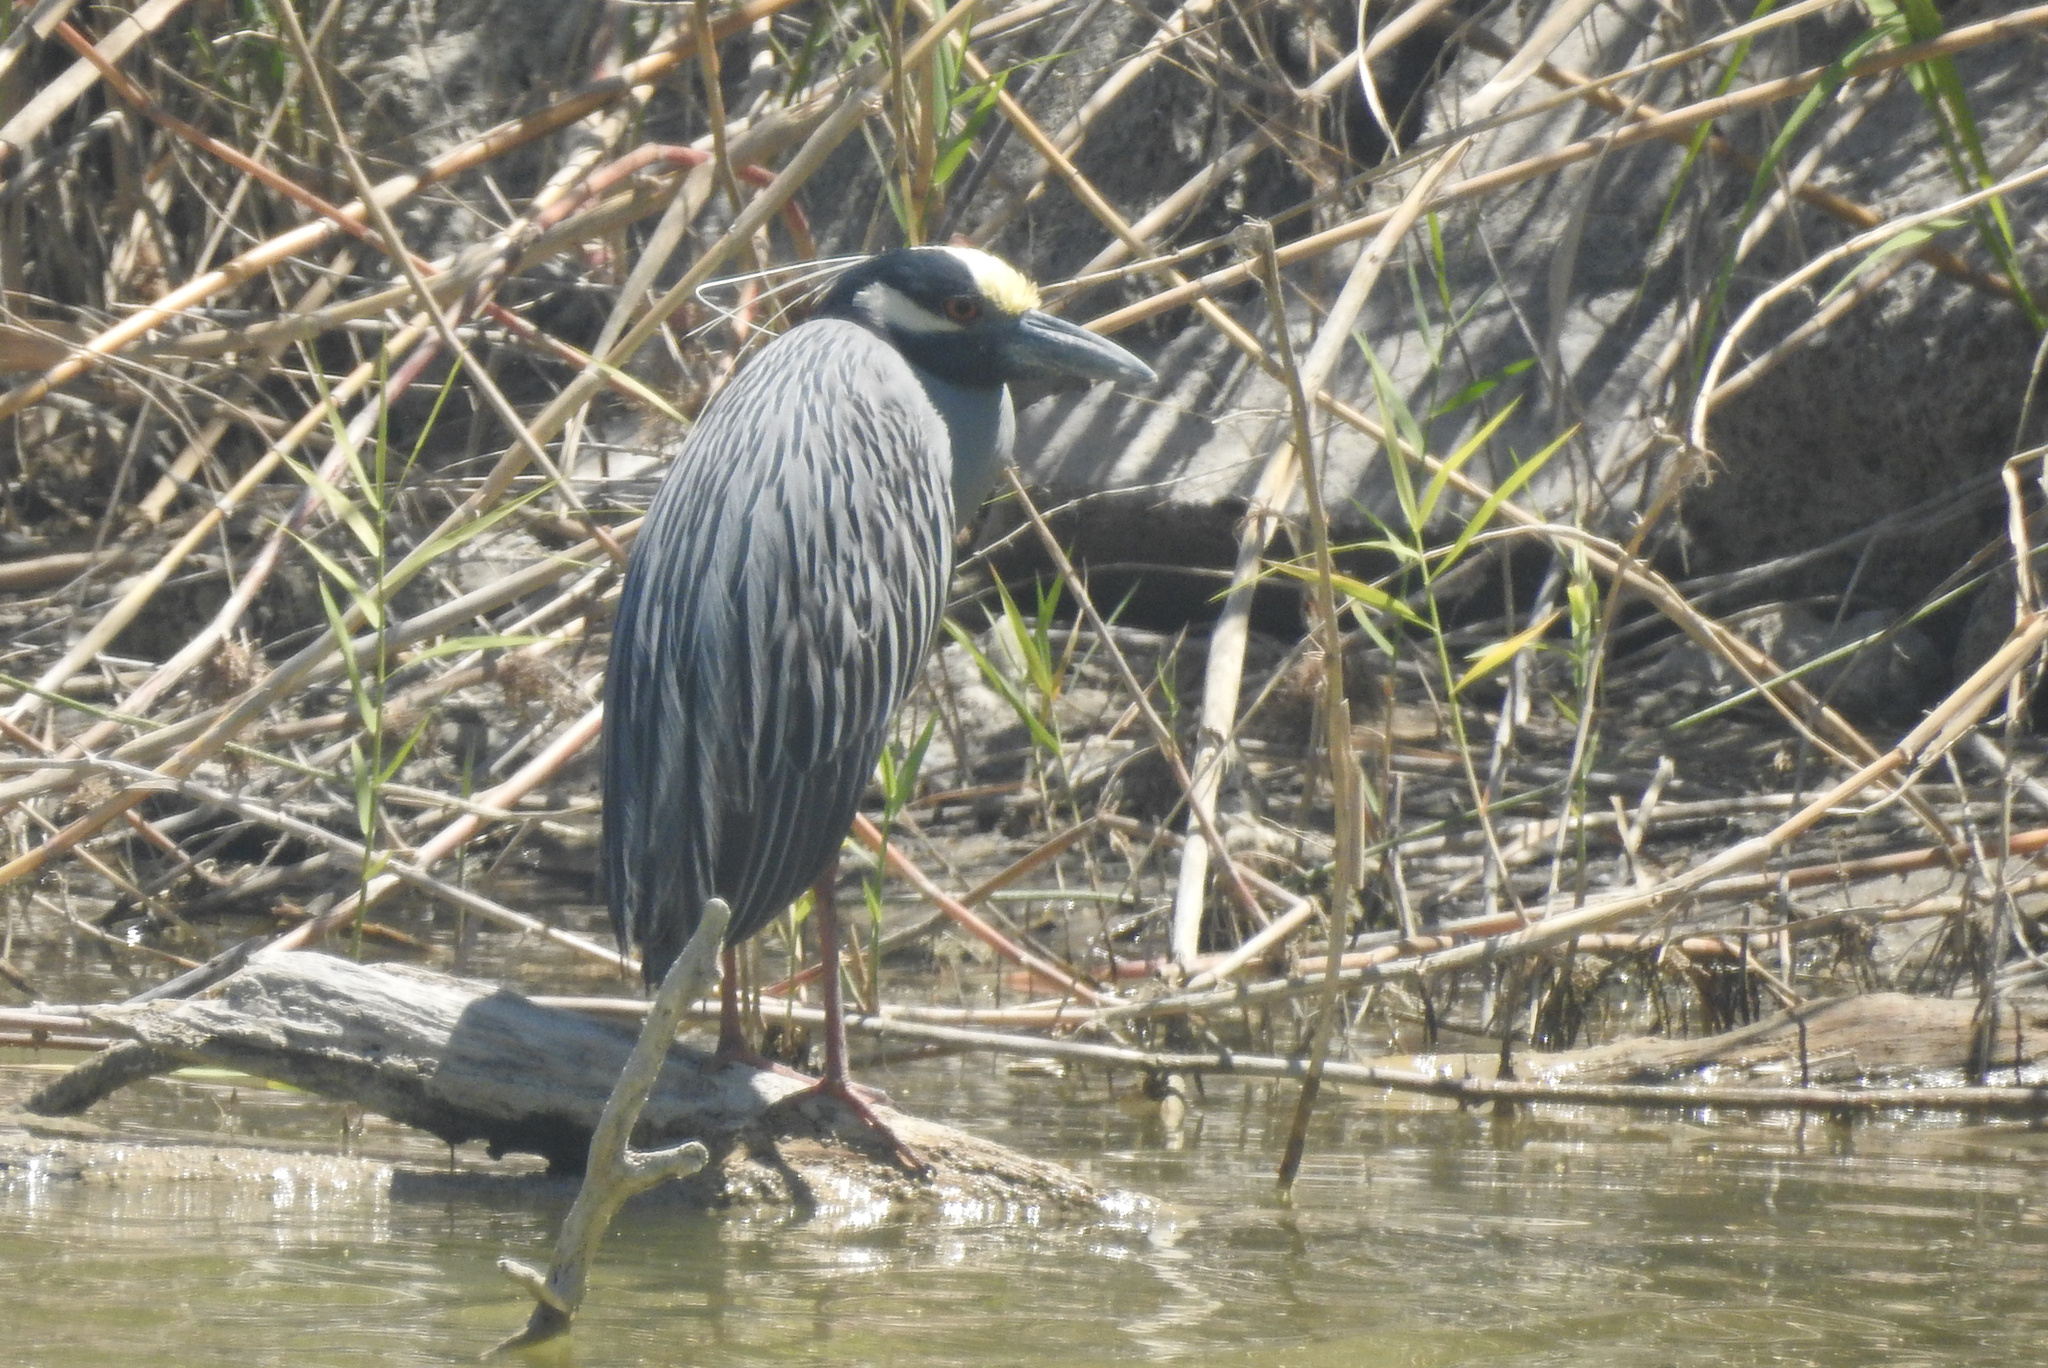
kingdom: Animalia
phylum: Chordata
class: Aves
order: Pelecaniformes
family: Ardeidae
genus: Nyctanassa
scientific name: Nyctanassa violacea
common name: Yellow-crowned night heron
